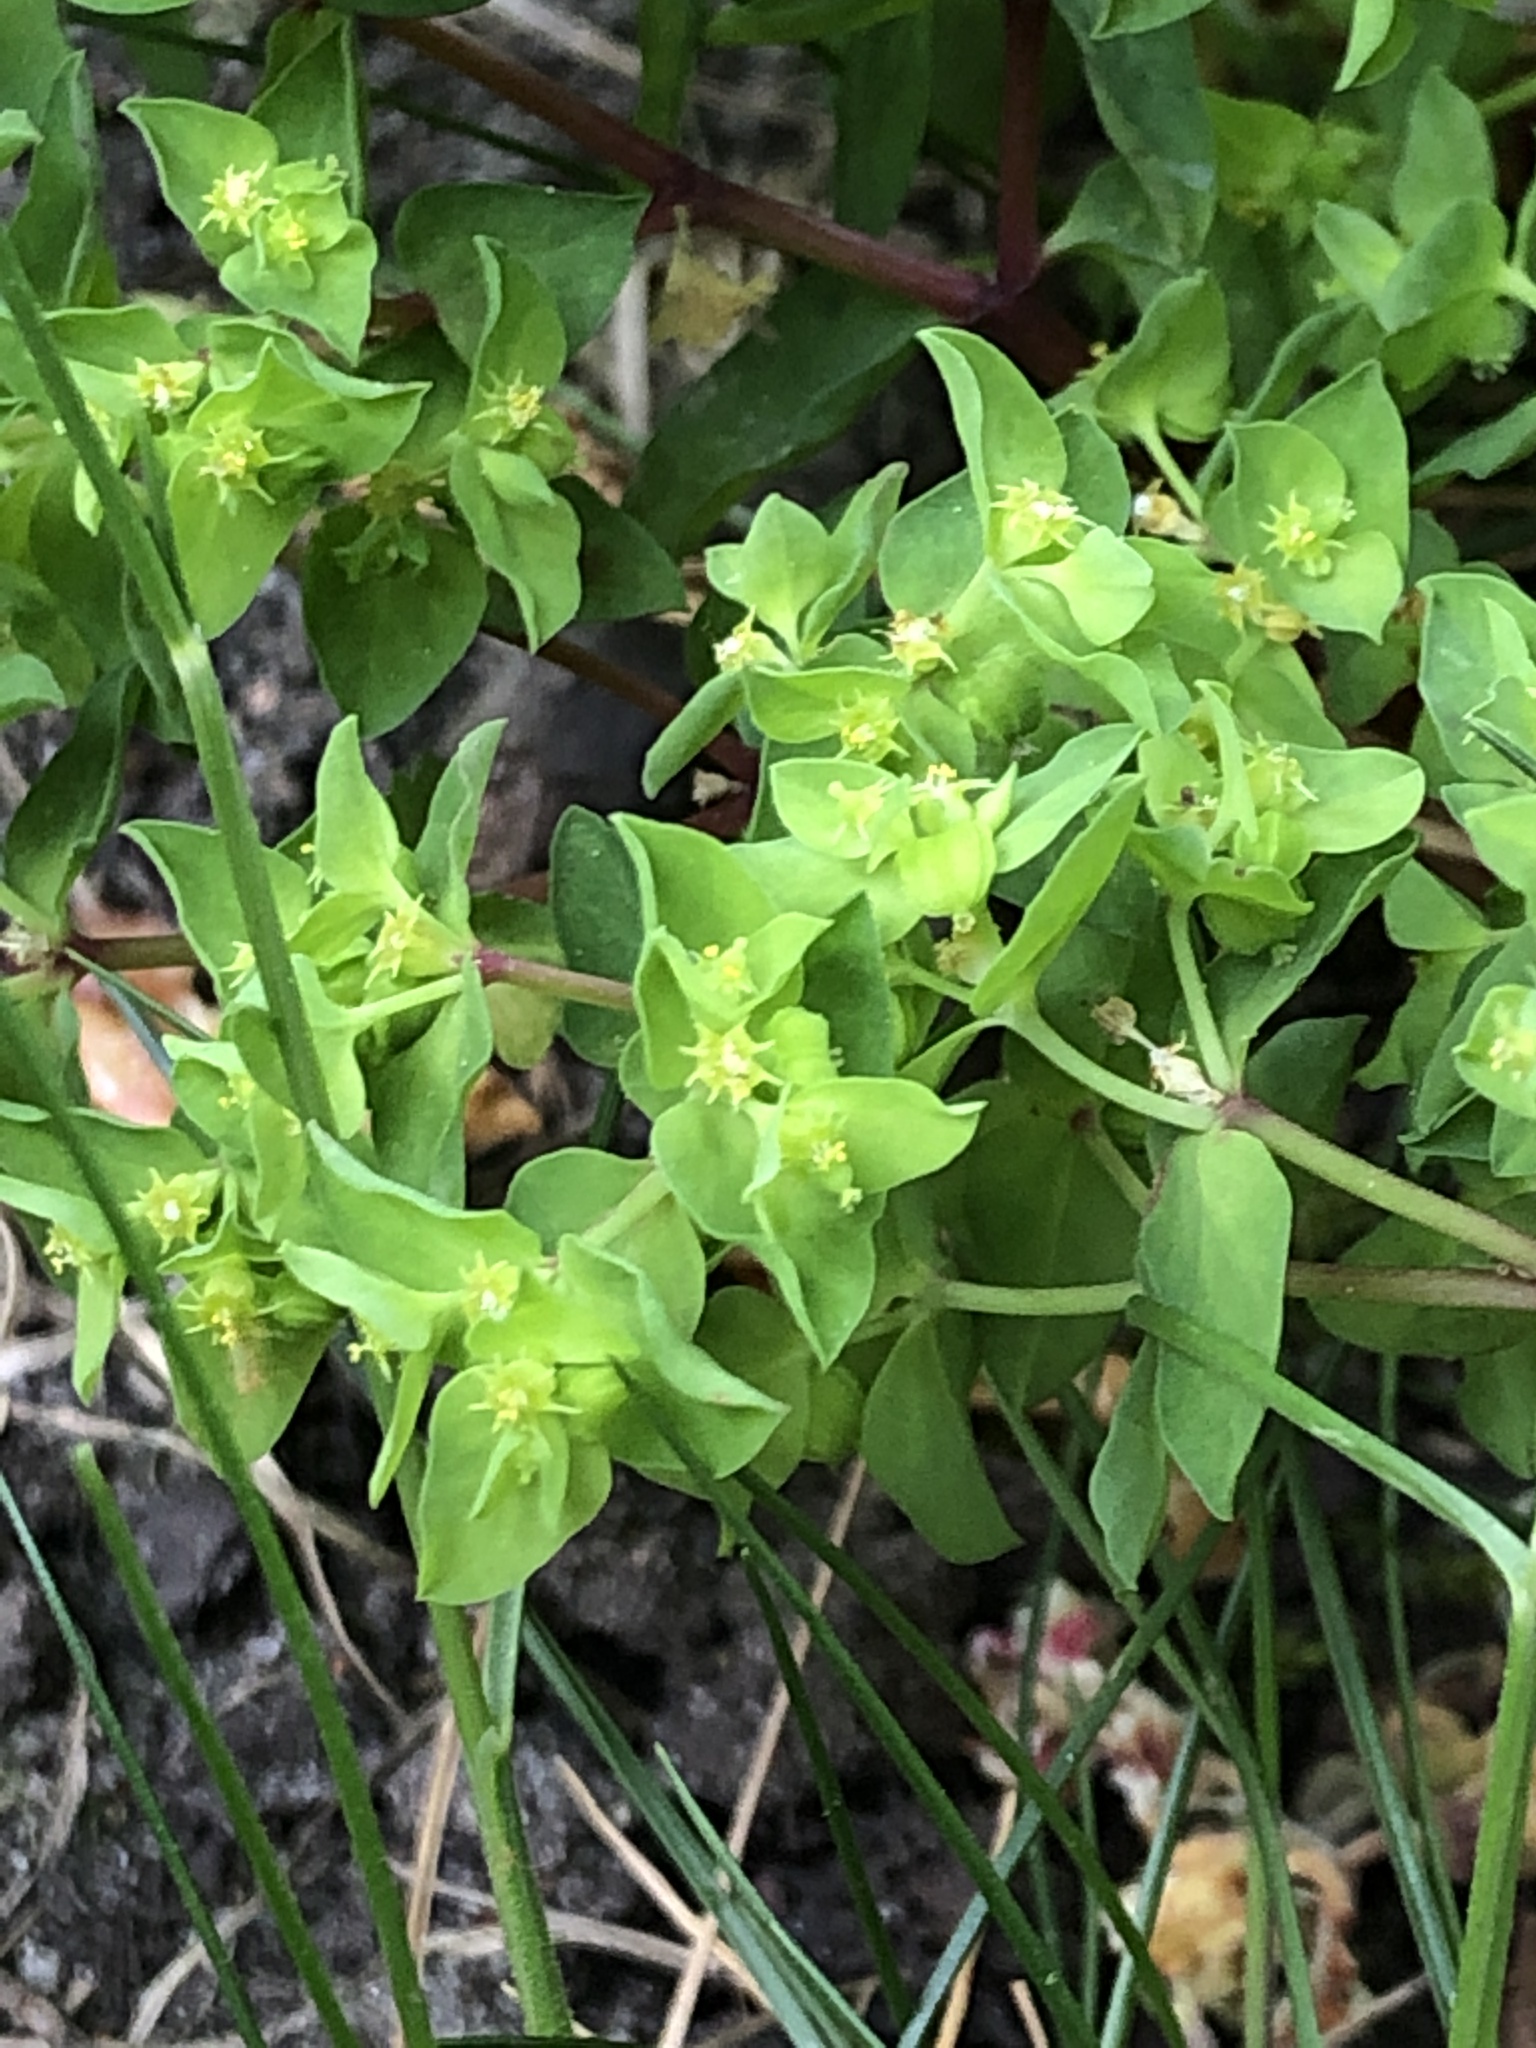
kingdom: Plantae
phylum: Tracheophyta
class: Magnoliopsida
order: Malpighiales
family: Euphorbiaceae
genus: Euphorbia
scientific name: Euphorbia peplus
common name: Petty spurge
